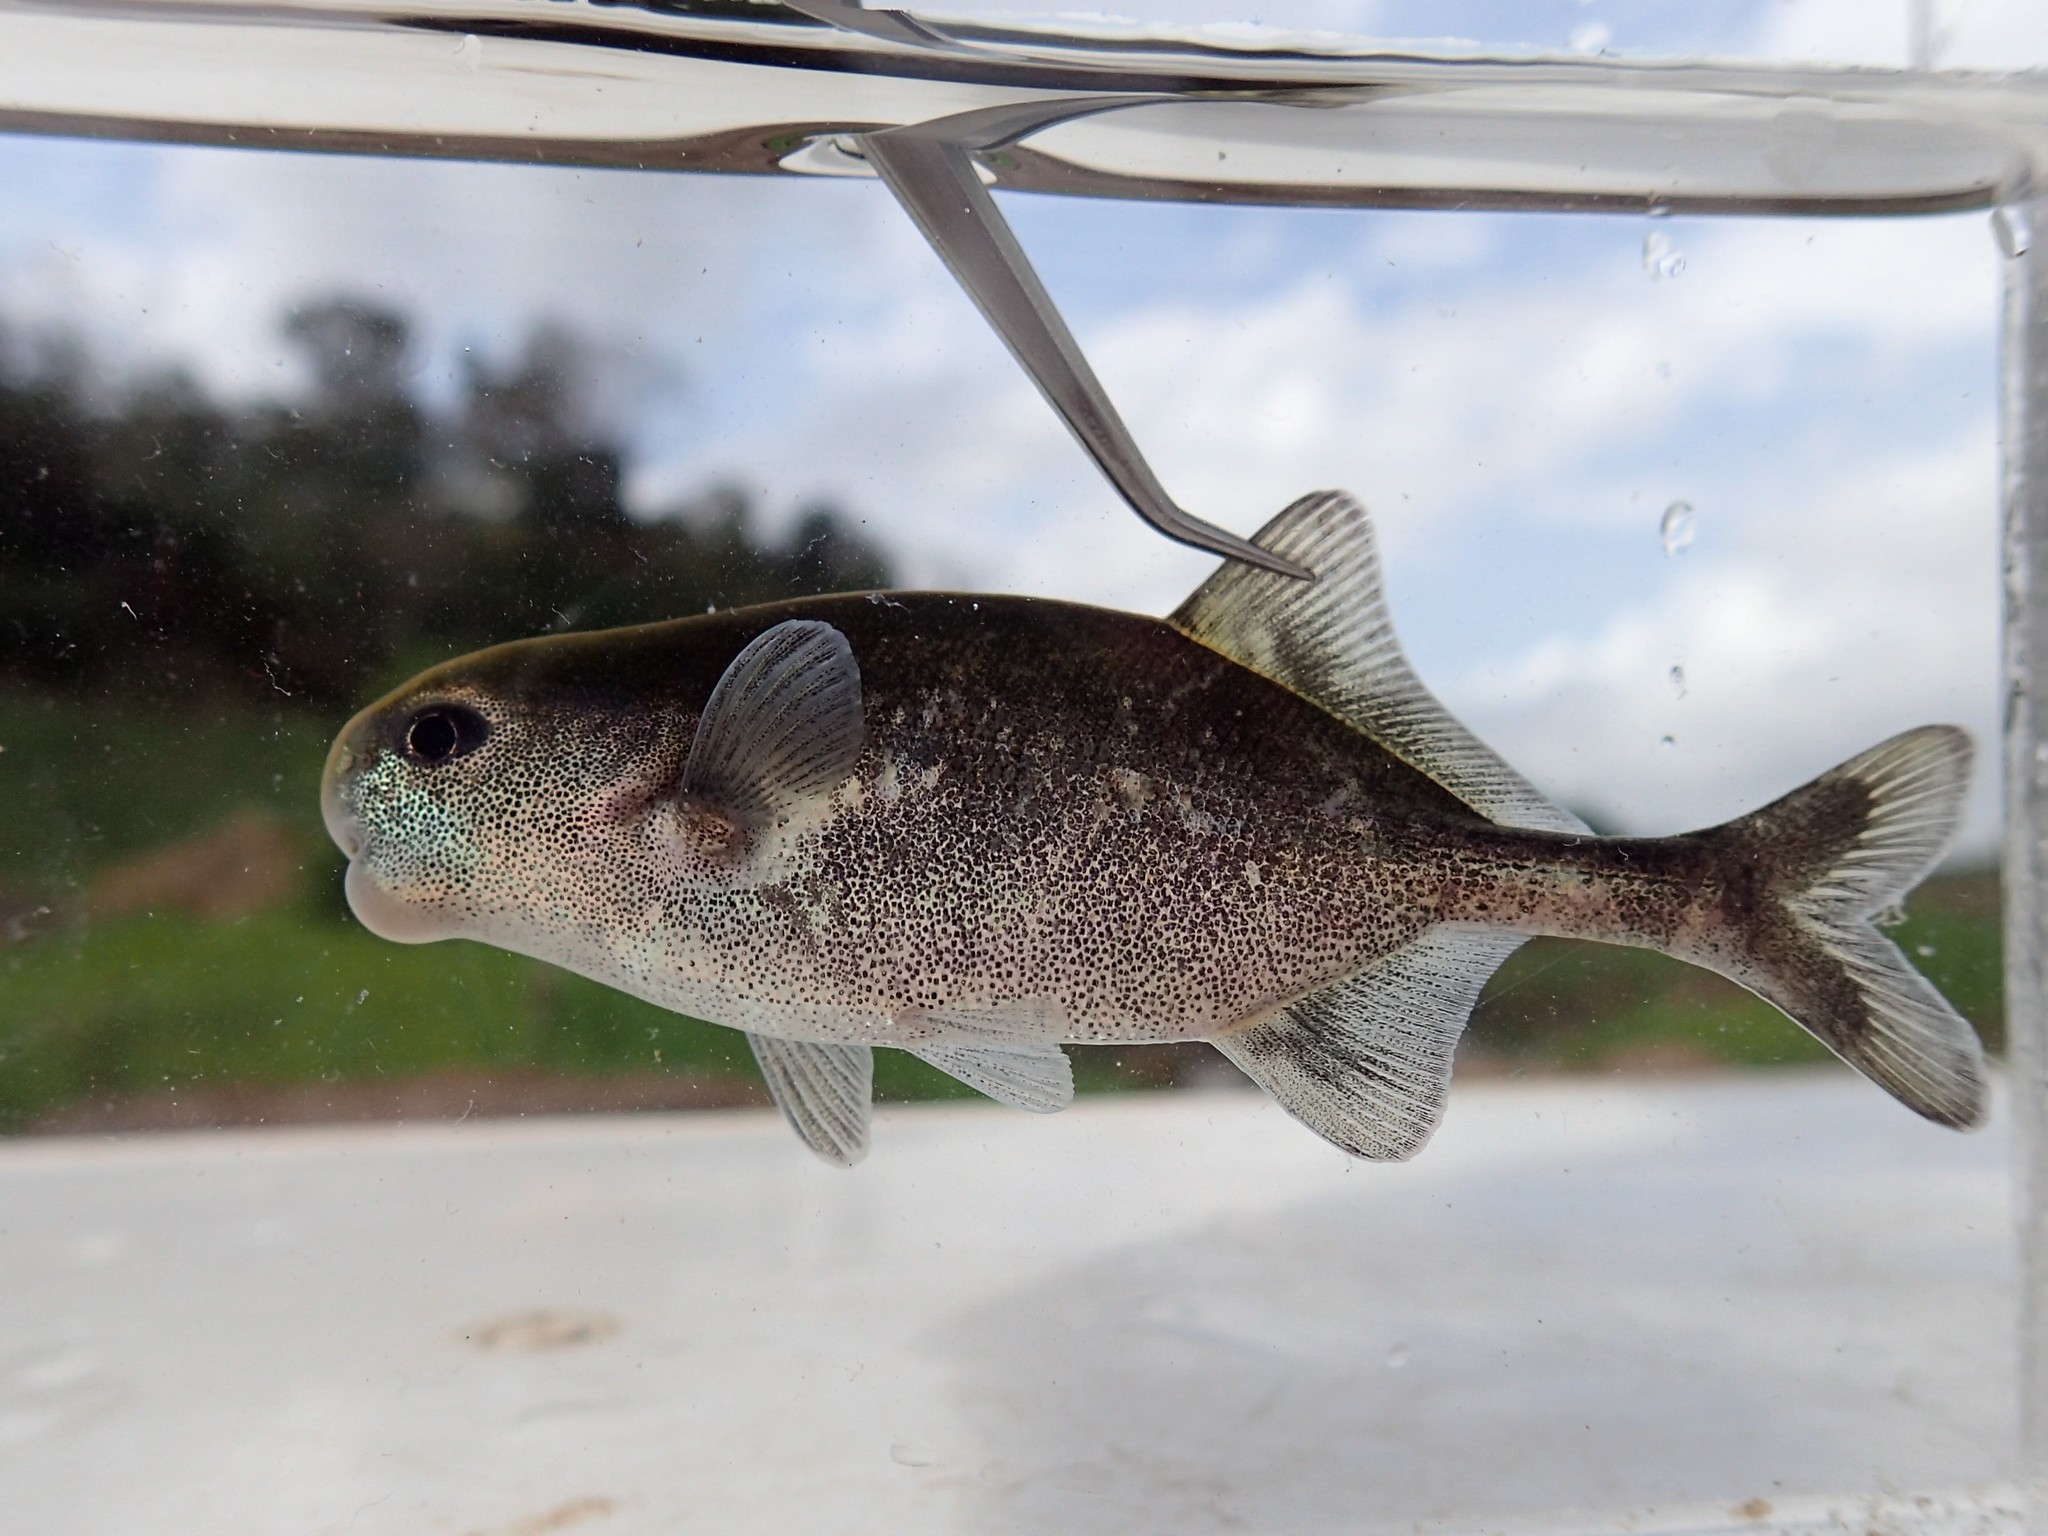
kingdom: Animalia
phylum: Chordata
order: Osteoglossiformes
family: Mormyridae
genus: Cyphomyrus
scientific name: Cyphomyrus discorhynchus
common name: Zambezi parrotfish
